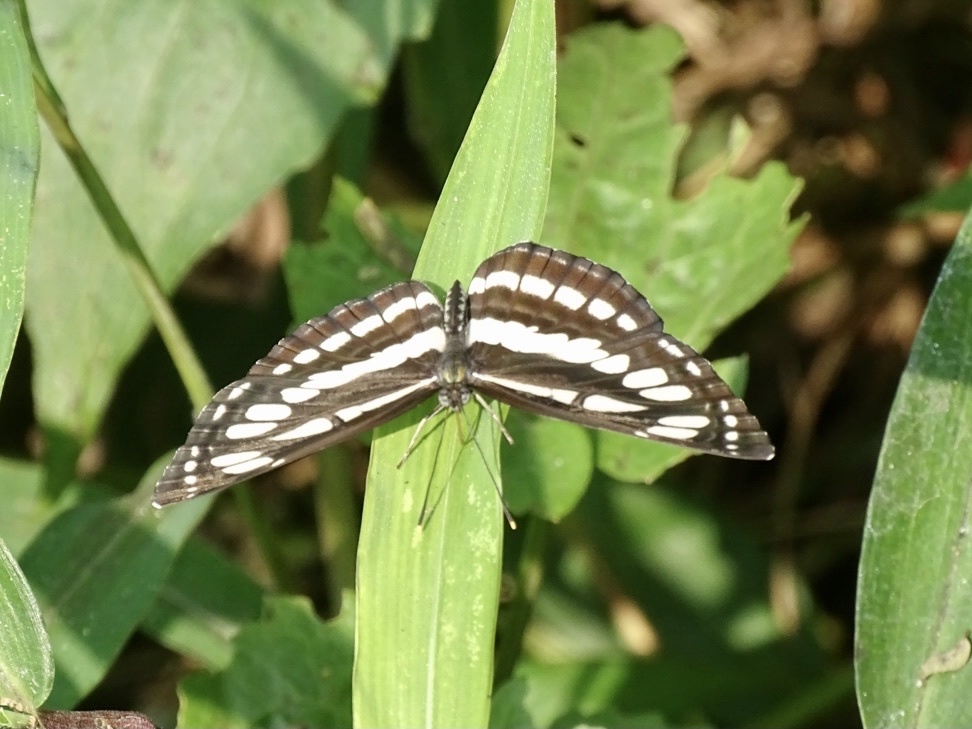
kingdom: Animalia
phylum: Arthropoda
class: Insecta
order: Lepidoptera
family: Nymphalidae
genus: Neptis
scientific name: Neptis hylas
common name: Common sailer
